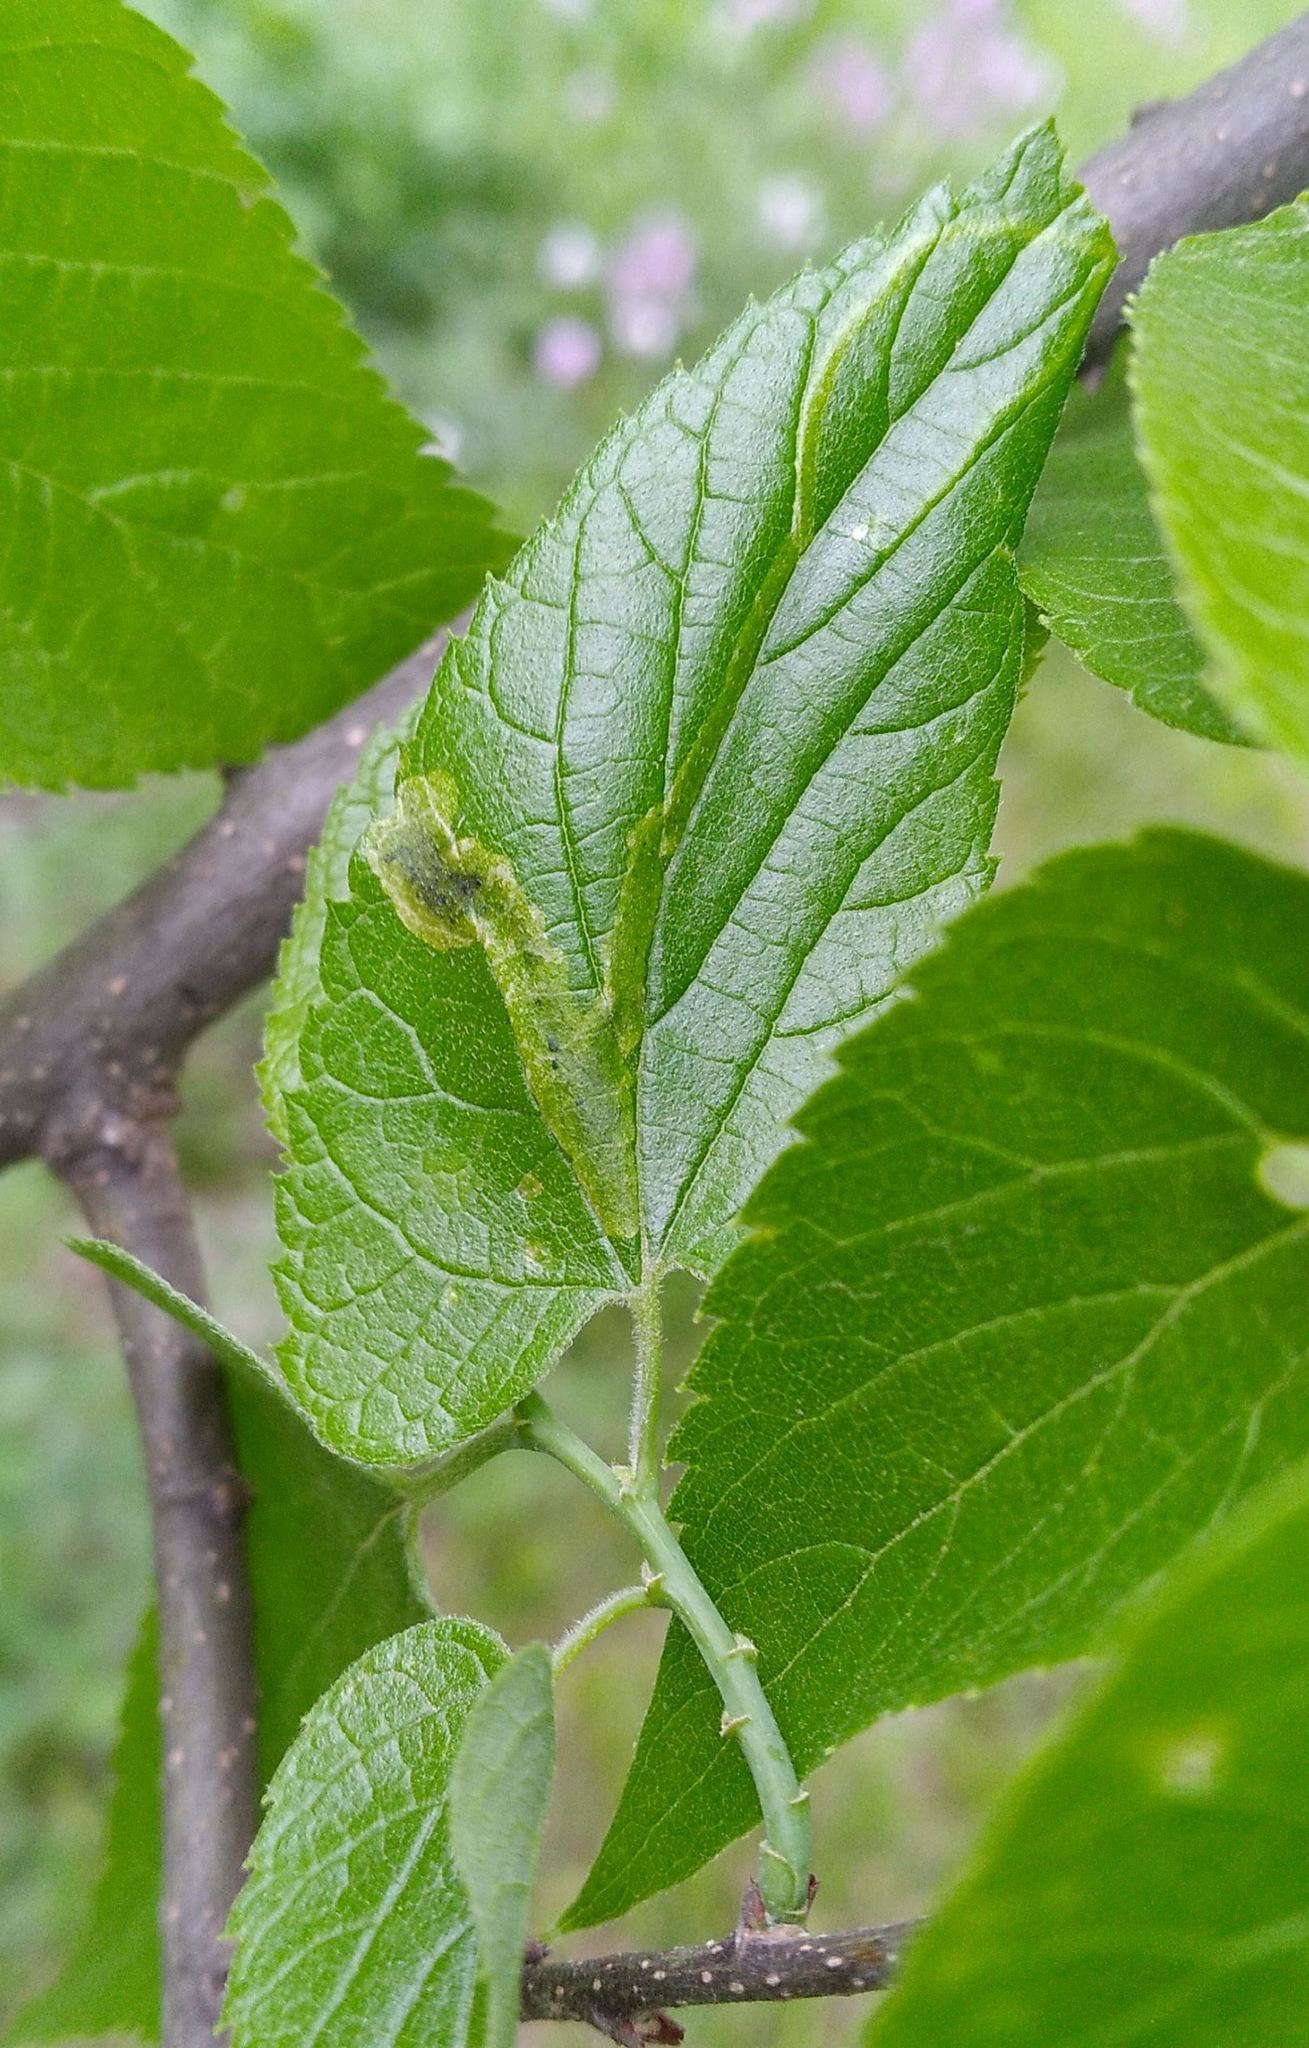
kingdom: Animalia
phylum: Arthropoda
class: Insecta
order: Diptera
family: Agromyzidae
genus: Agromyza
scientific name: Agromyza aristata
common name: Elm agromyzid leafminer
